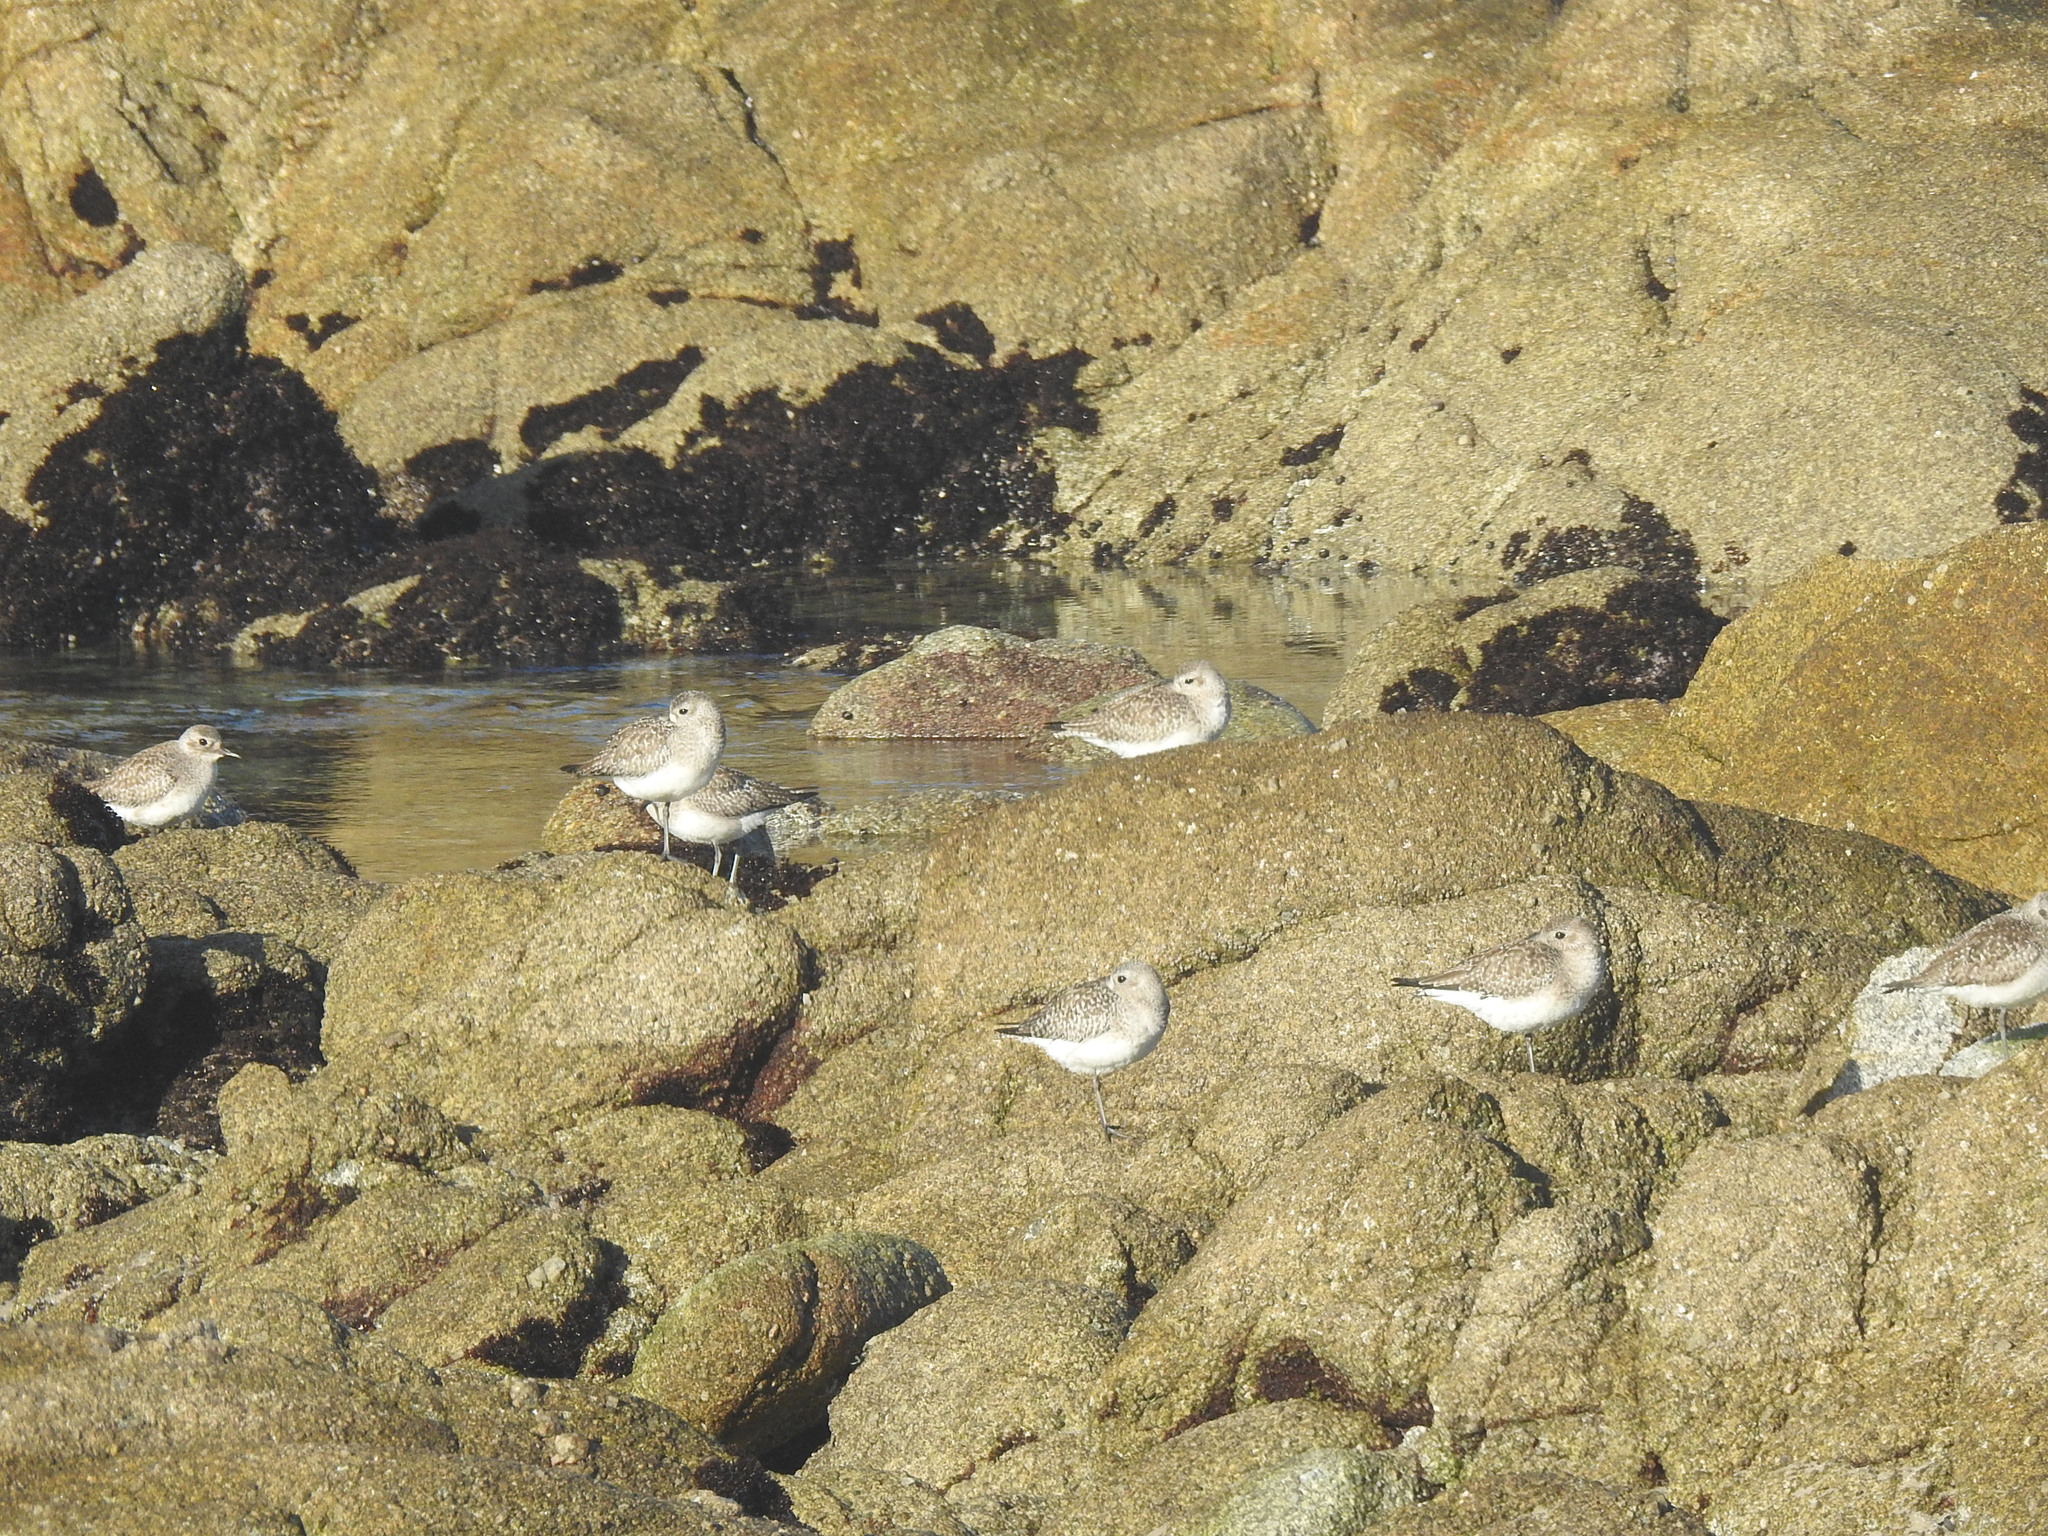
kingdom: Animalia
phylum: Chordata
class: Aves
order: Charadriiformes
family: Charadriidae
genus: Pluvialis
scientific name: Pluvialis squatarola
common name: Grey plover
